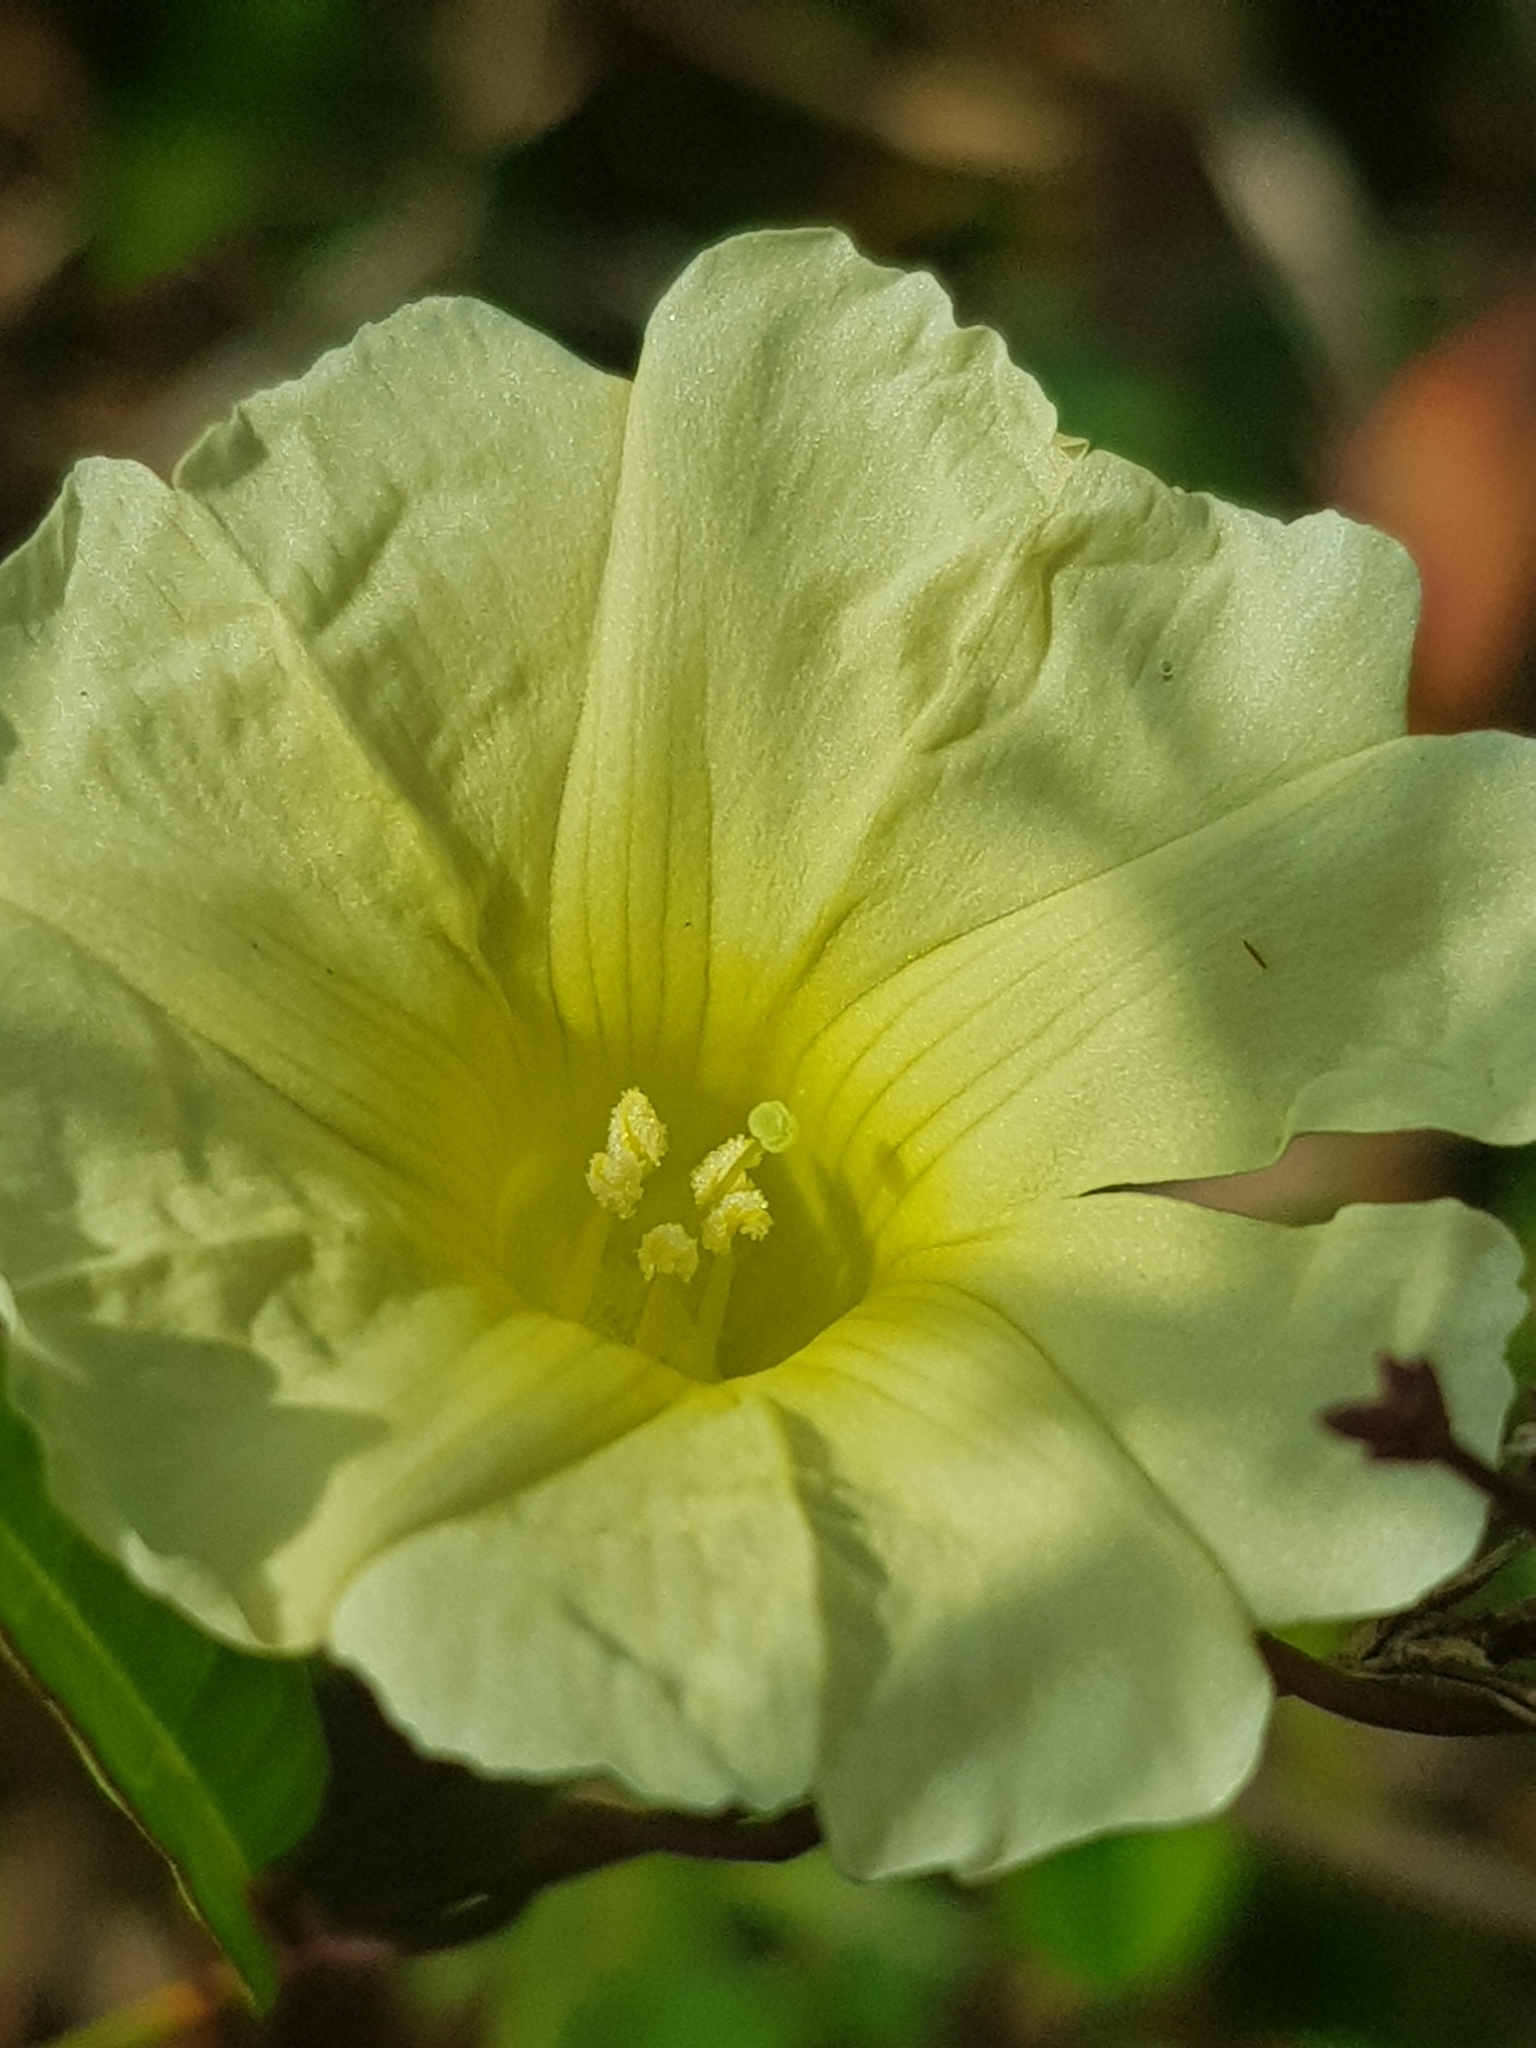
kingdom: Plantae
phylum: Tracheophyta
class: Magnoliopsida
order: Solanales
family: Convolvulaceae
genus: Merremia
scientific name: Merremia hirta
